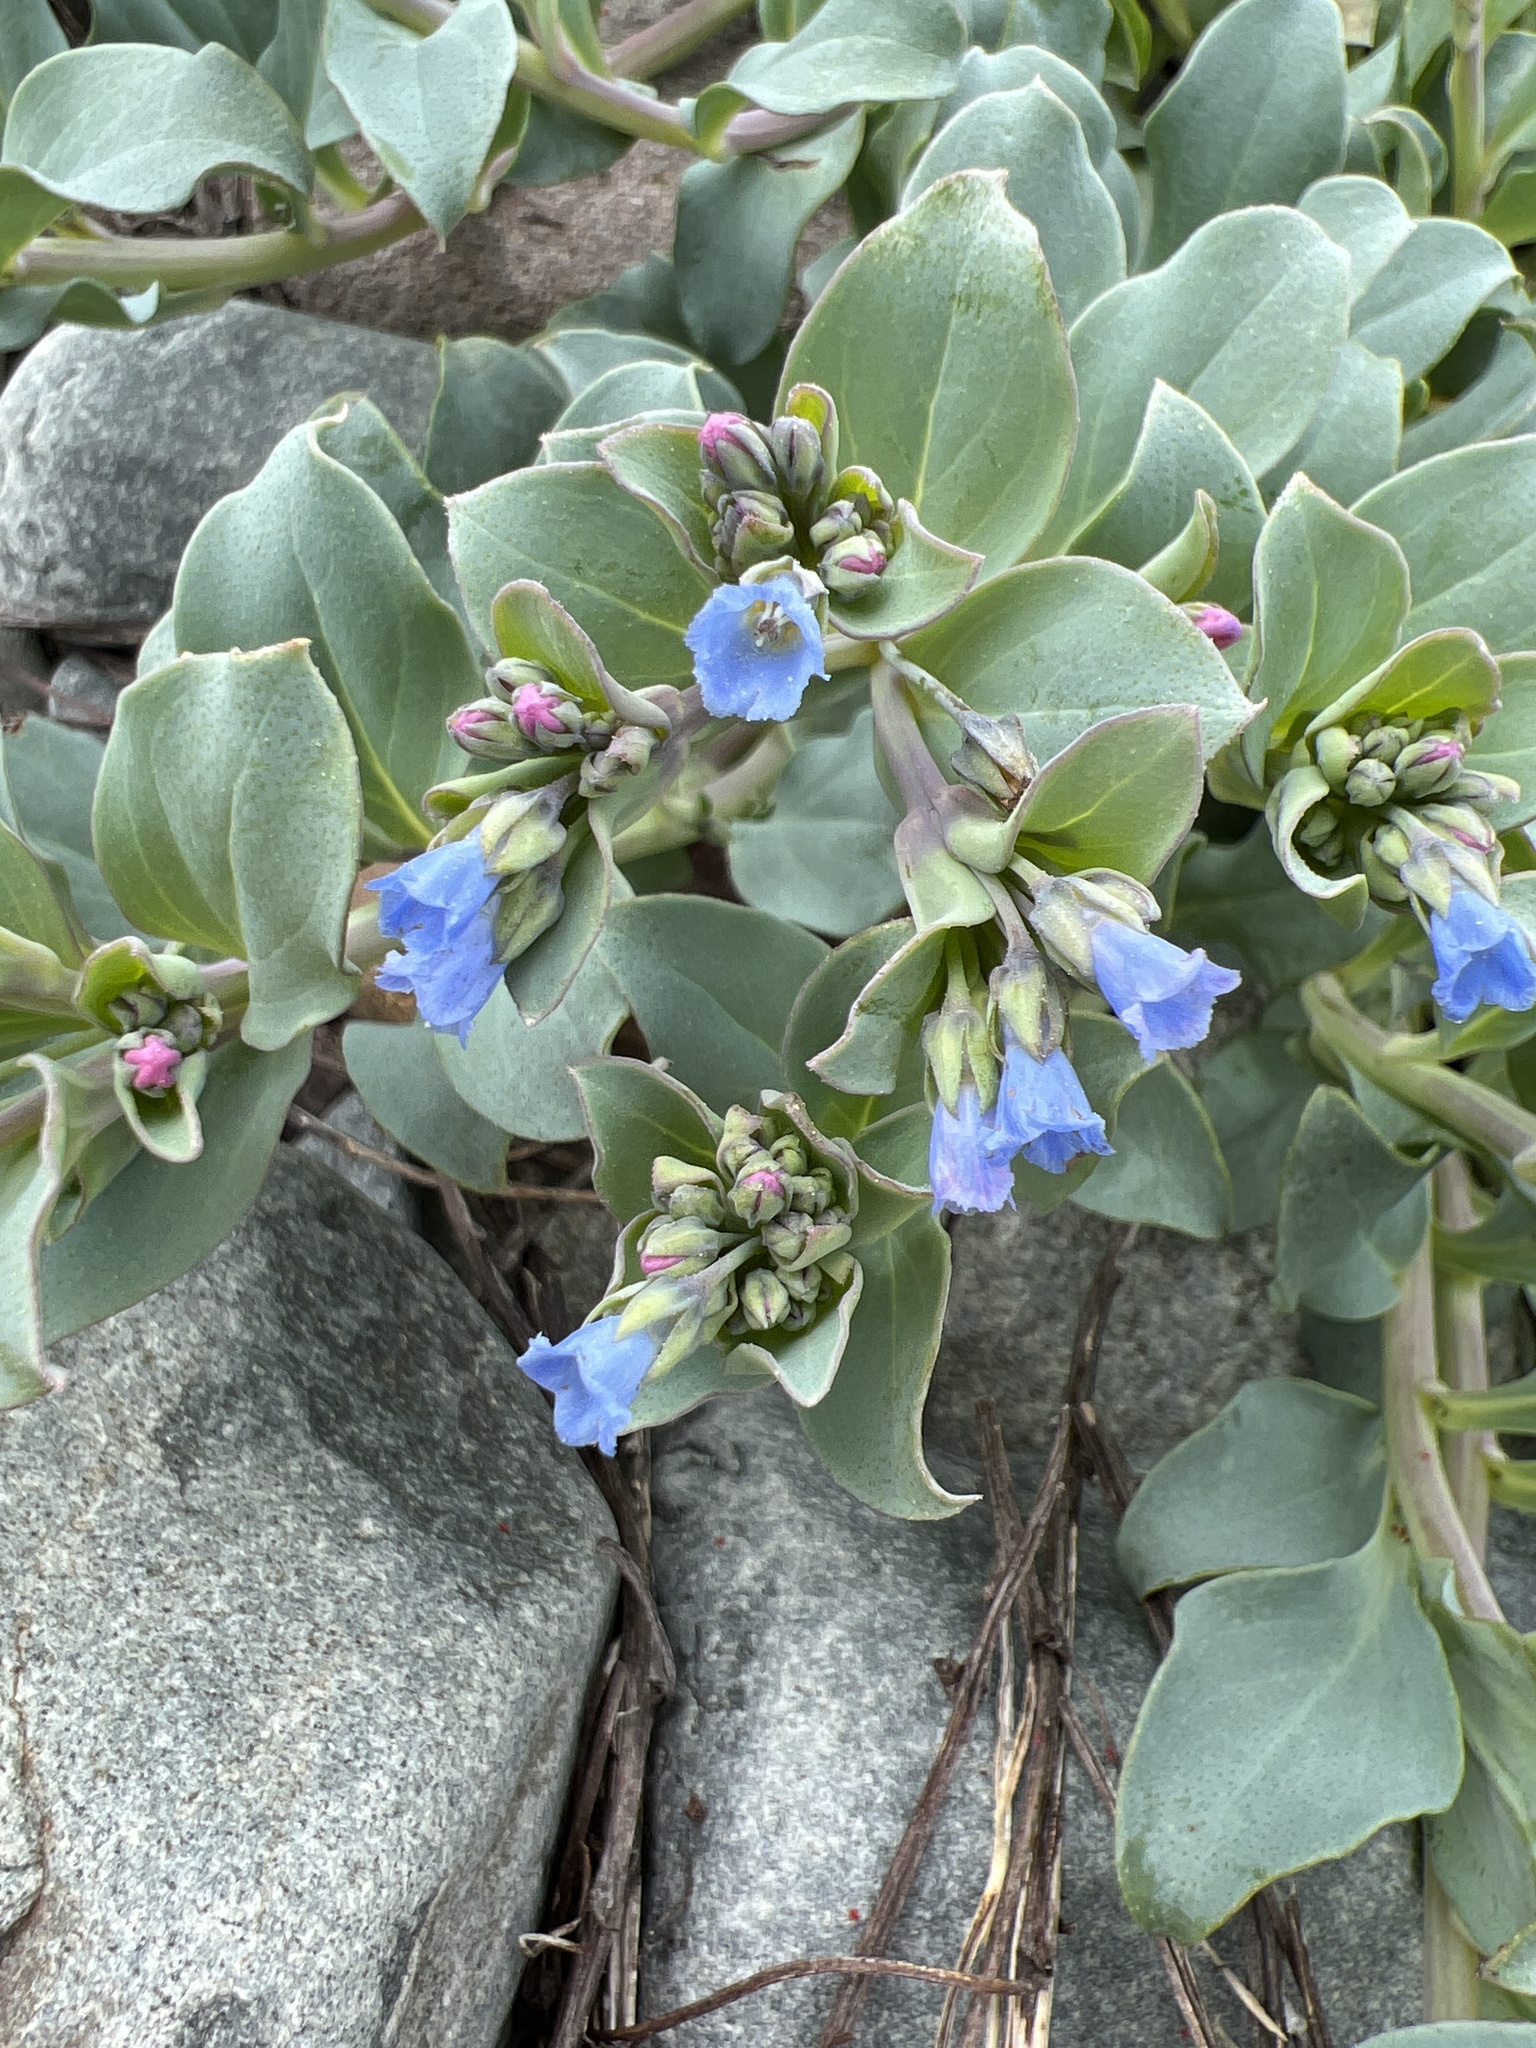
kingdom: Plantae
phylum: Tracheophyta
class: Magnoliopsida
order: Boraginales
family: Boraginaceae
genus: Mertensia
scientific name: Mertensia maritima
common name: Oysterplant
